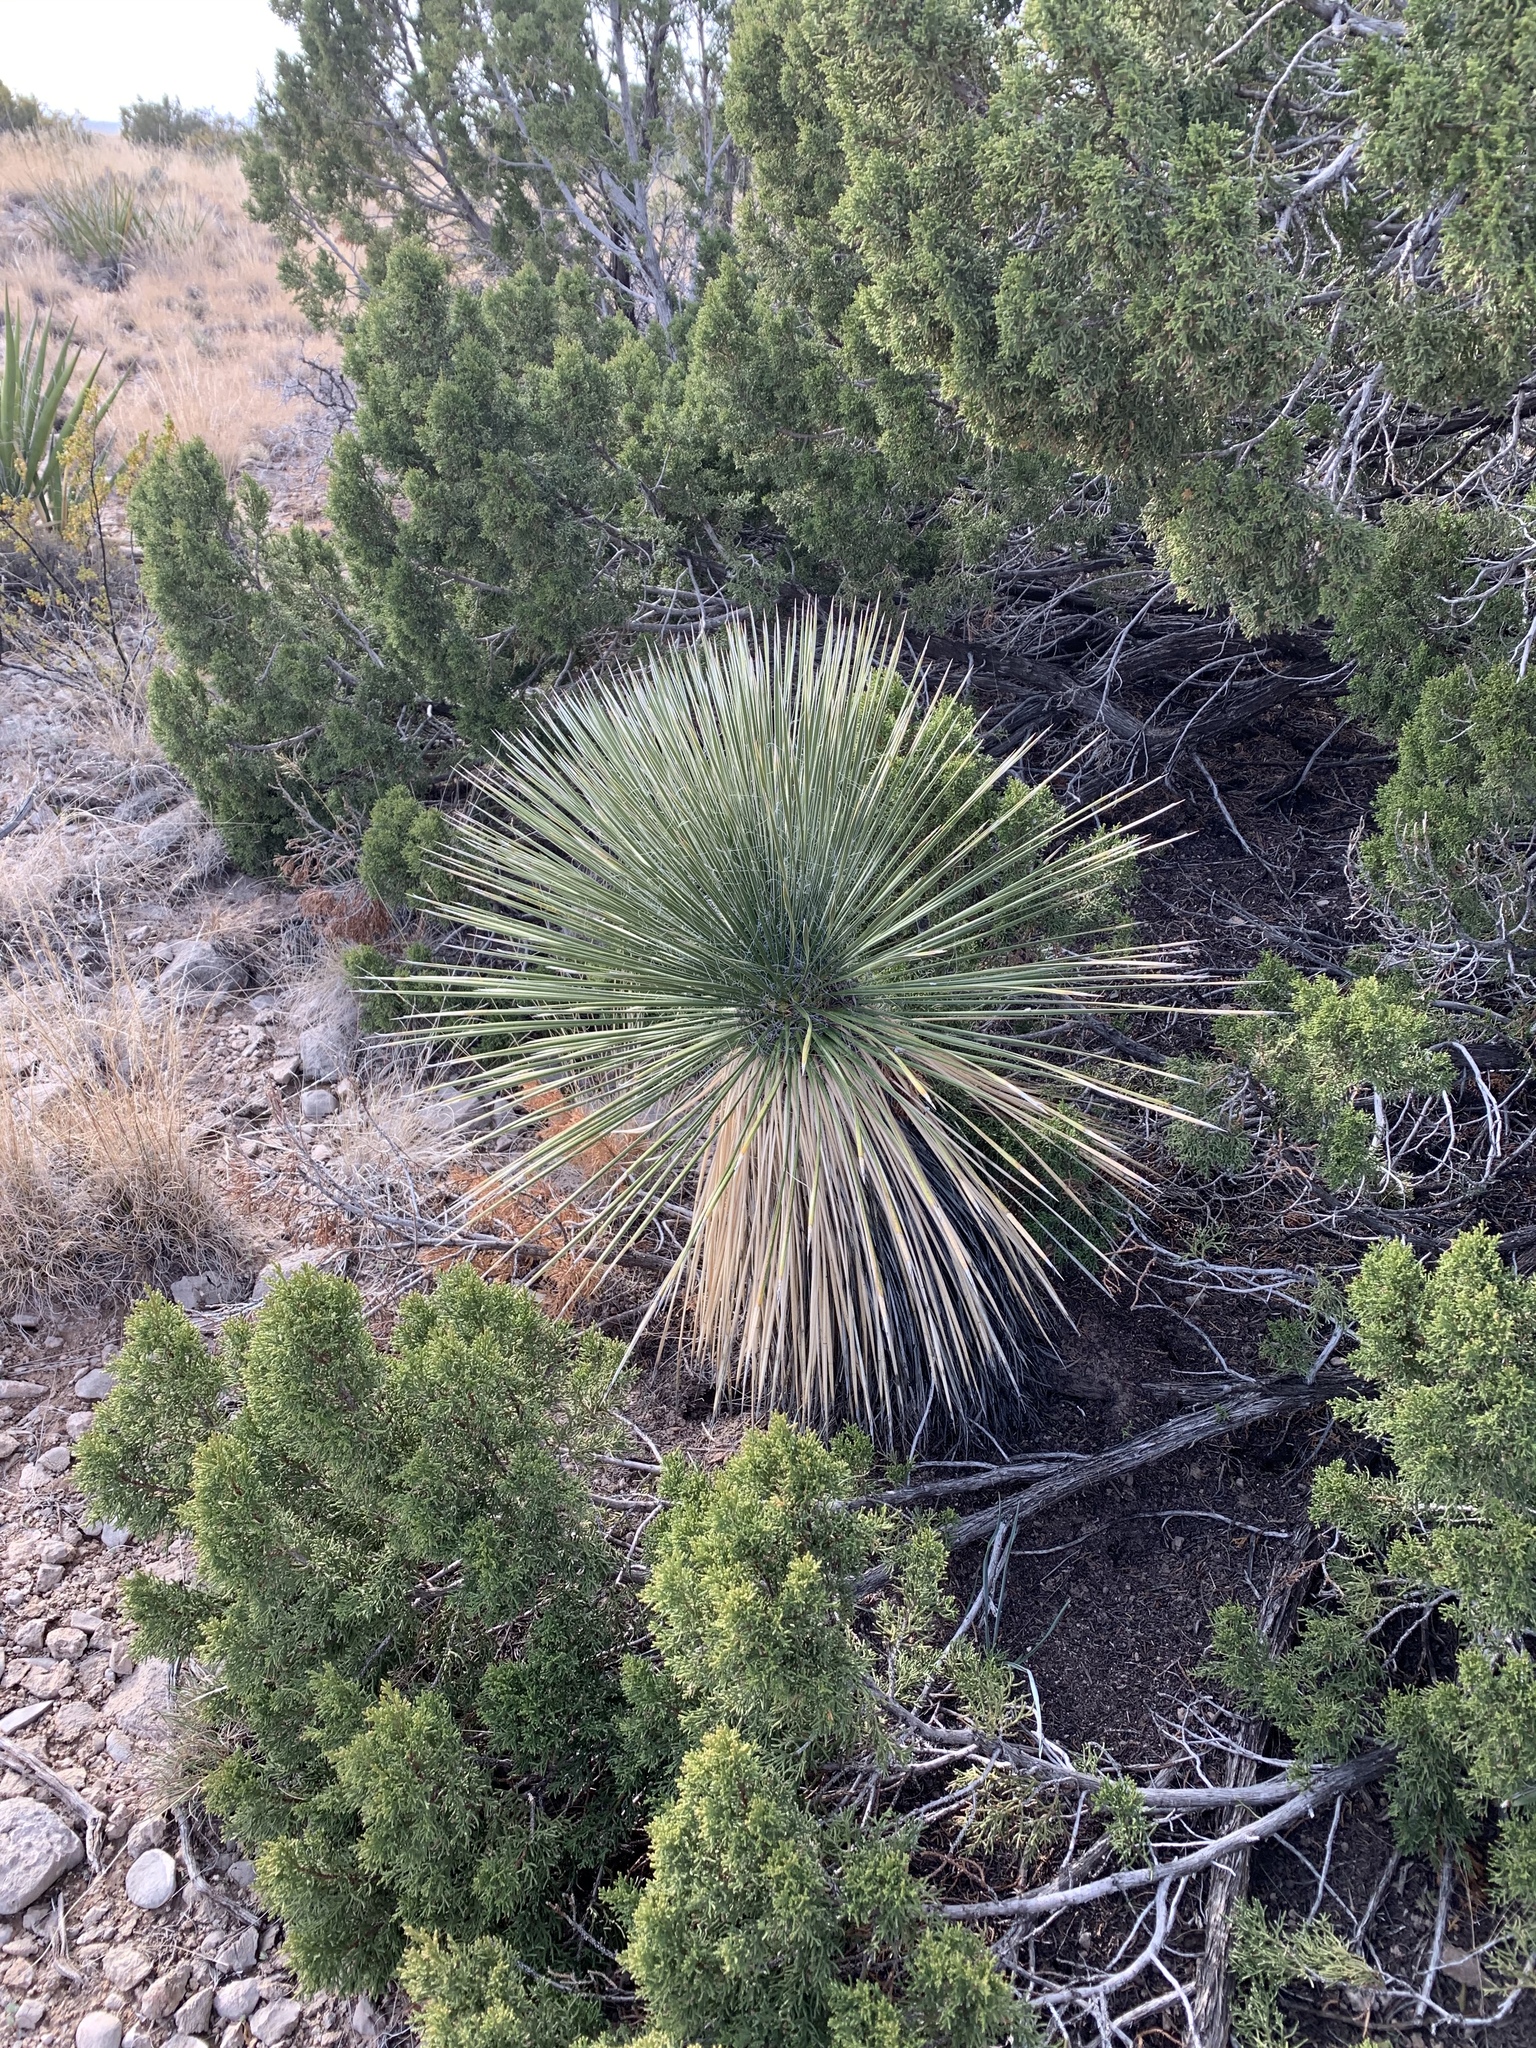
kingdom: Plantae
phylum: Tracheophyta
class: Liliopsida
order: Asparagales
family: Asparagaceae
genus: Yucca
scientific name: Yucca elata
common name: Palmella
